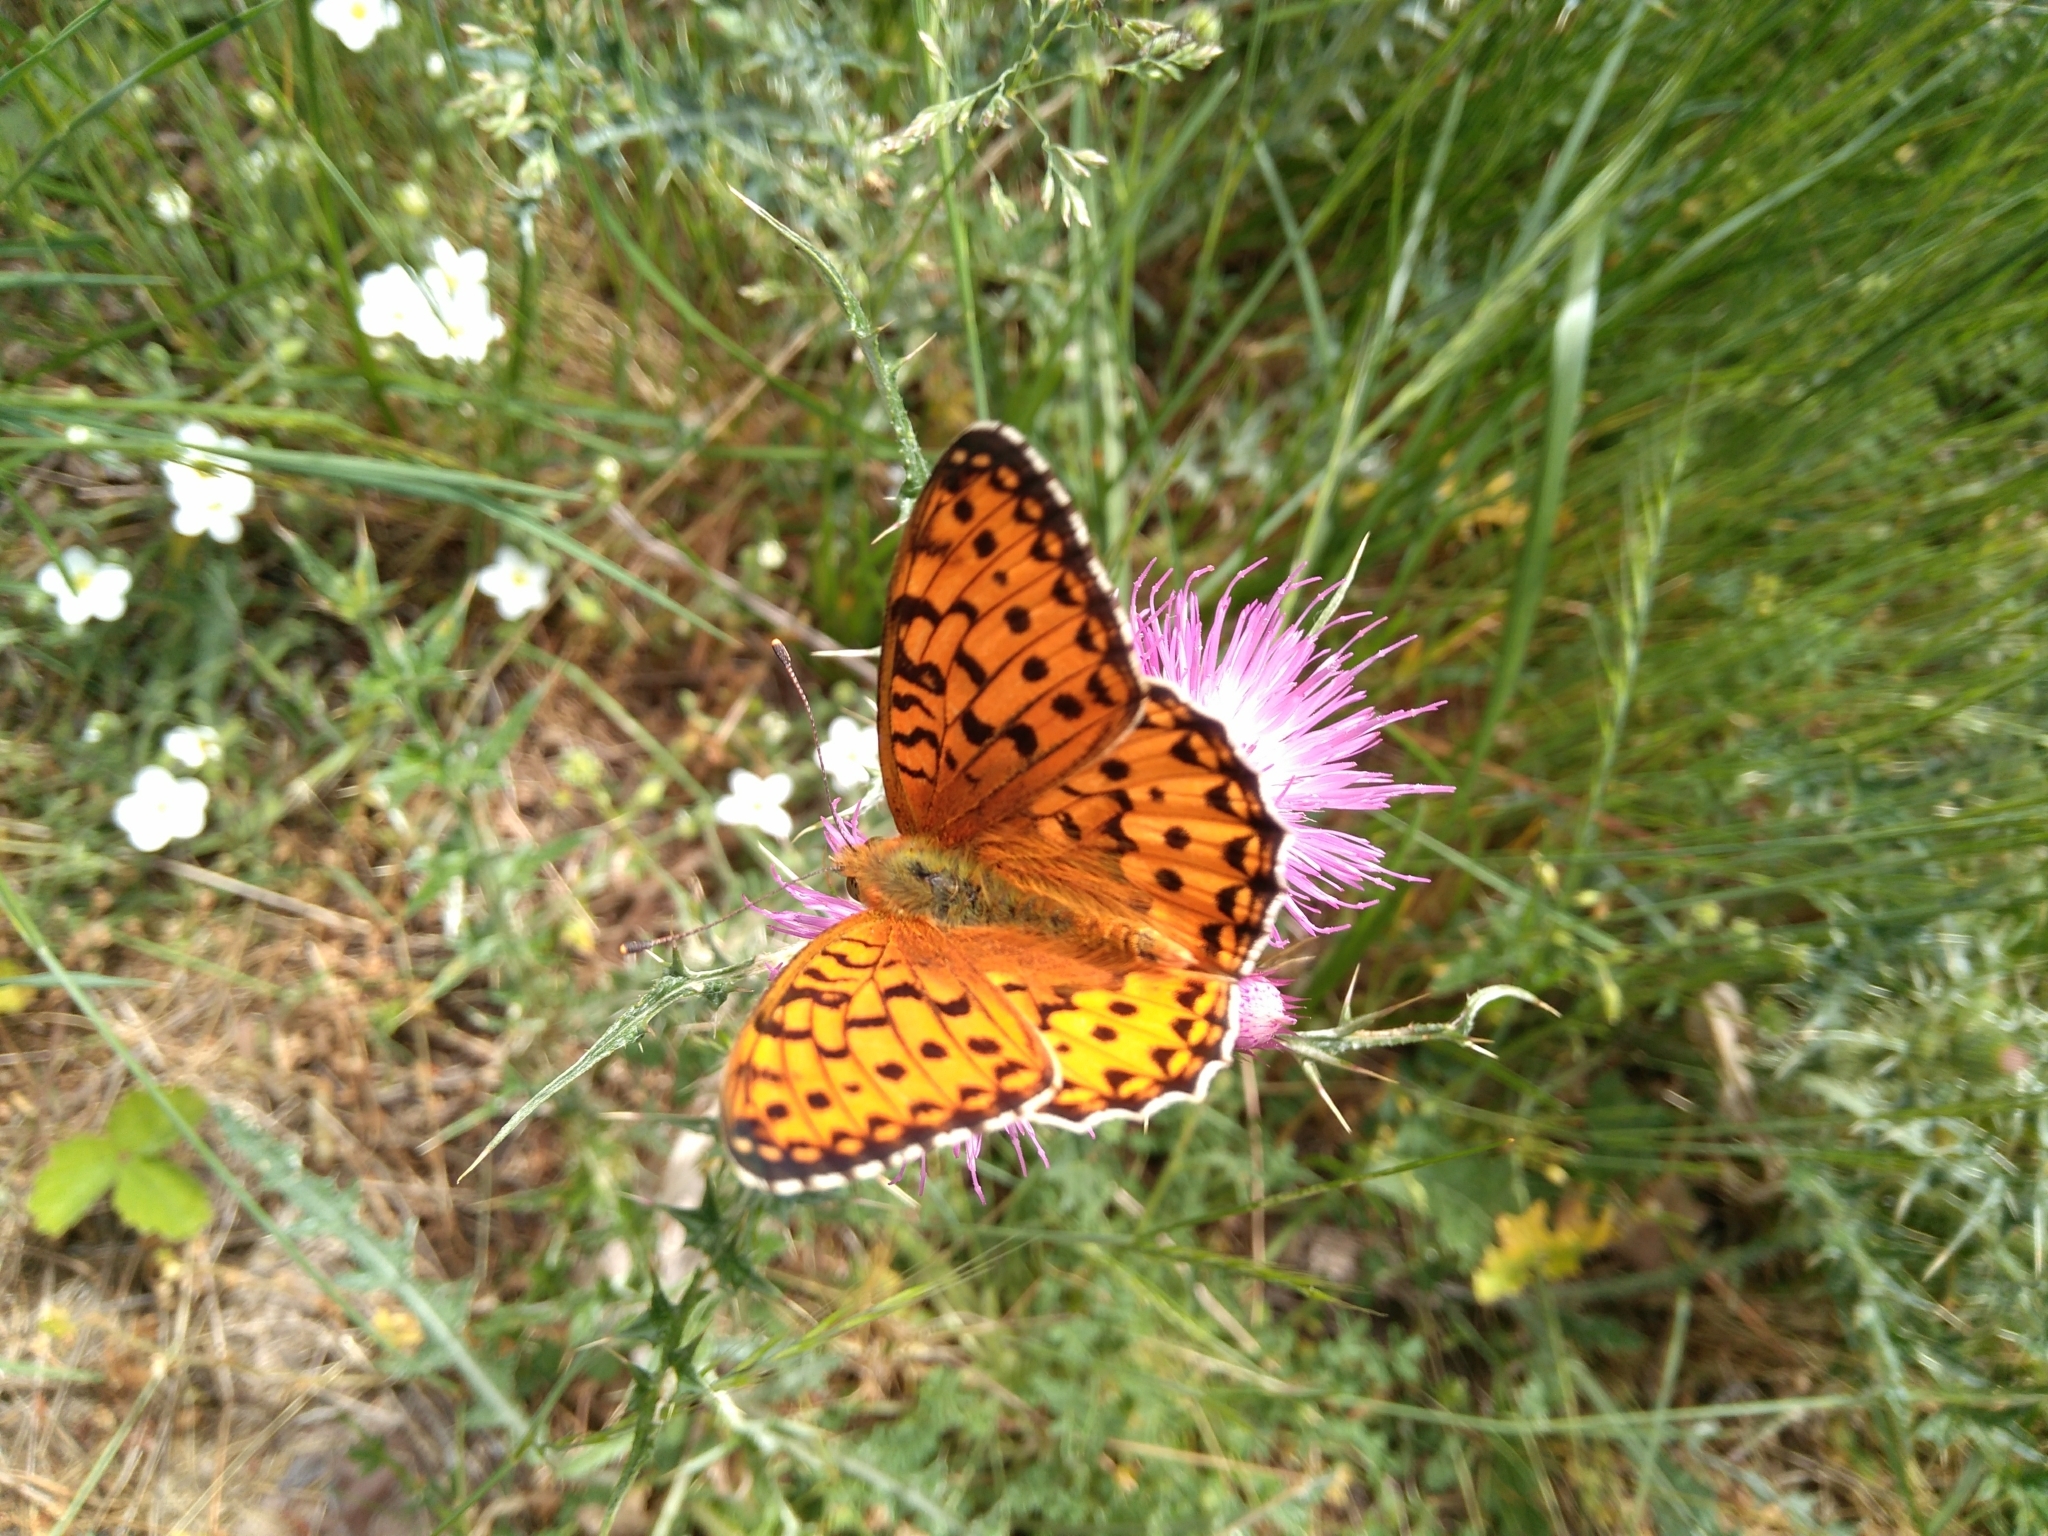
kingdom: Animalia
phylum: Arthropoda
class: Insecta
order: Lepidoptera
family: Nymphalidae
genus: Speyeria
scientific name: Speyeria aglaja
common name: Dark green fritillary
